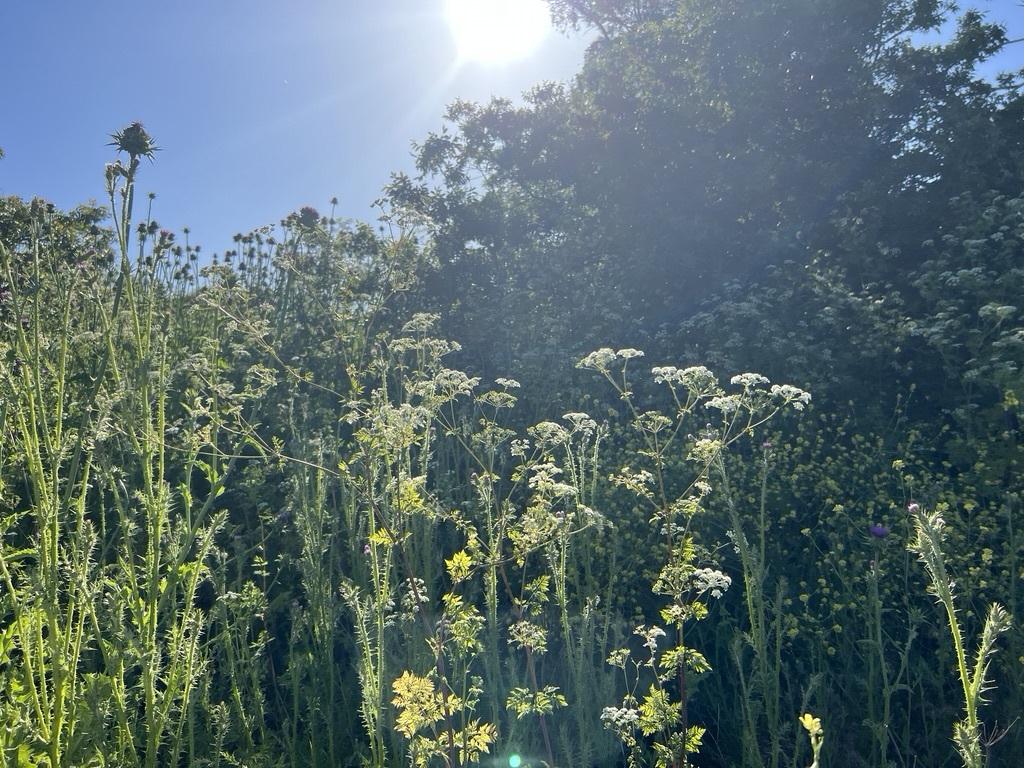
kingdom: Plantae
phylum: Tracheophyta
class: Magnoliopsida
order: Apiales
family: Apiaceae
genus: Conium
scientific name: Conium maculatum
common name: Hemlock
